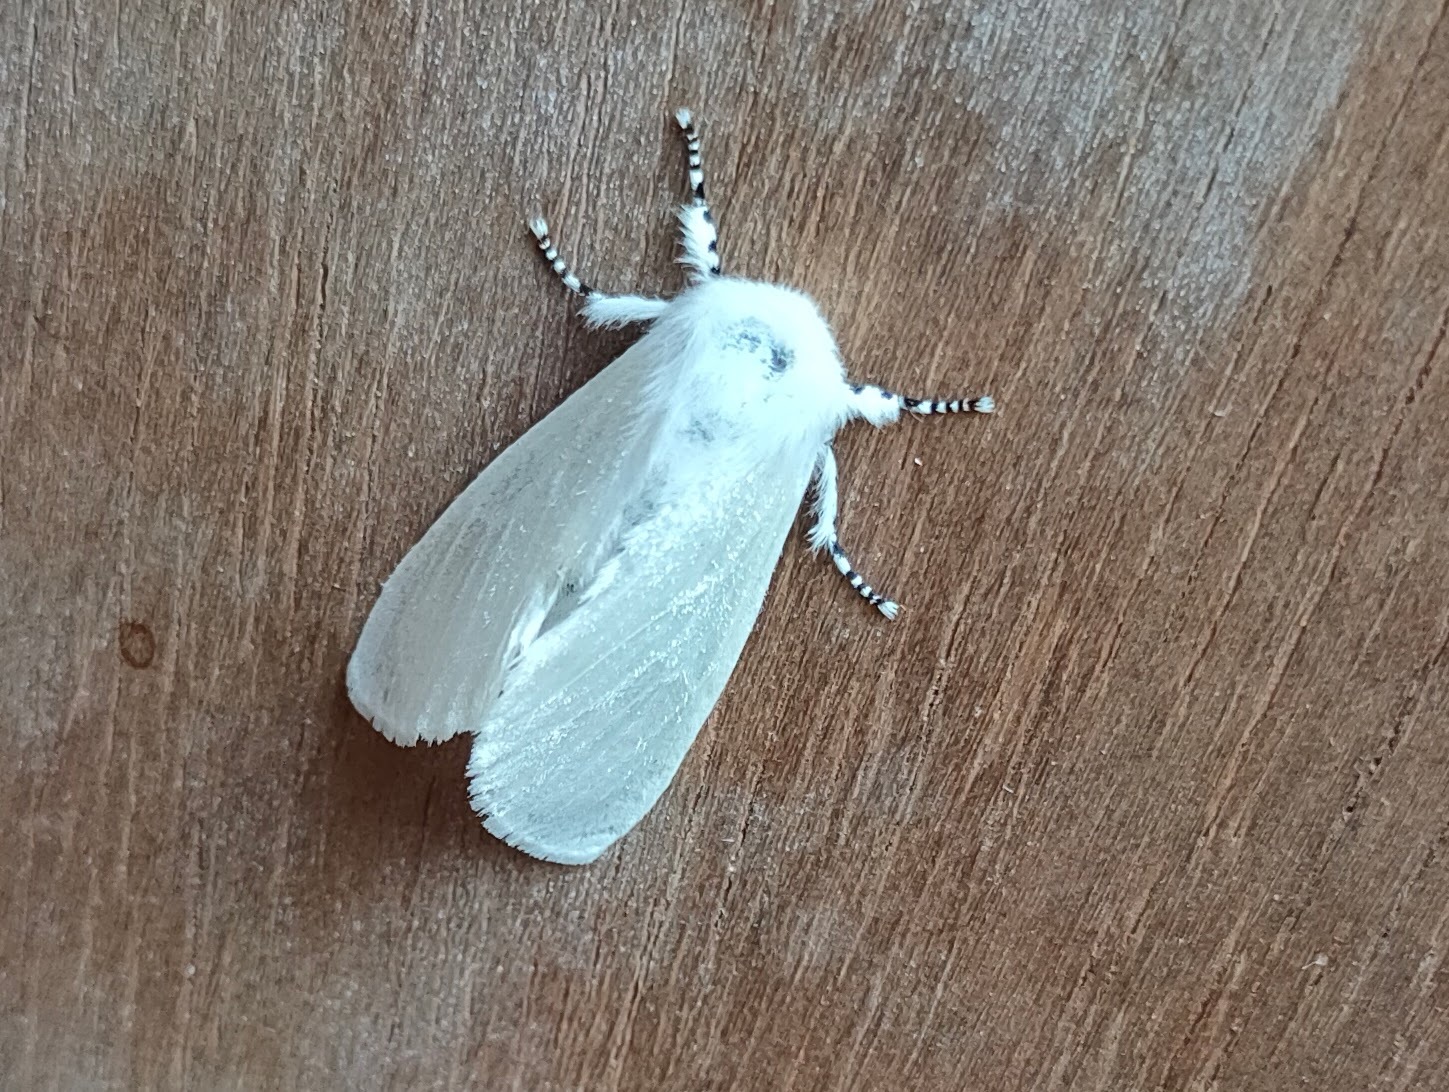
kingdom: Animalia
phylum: Arthropoda
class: Insecta
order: Lepidoptera
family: Erebidae
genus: Leucoma
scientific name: Leucoma salicis
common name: White satin moth
